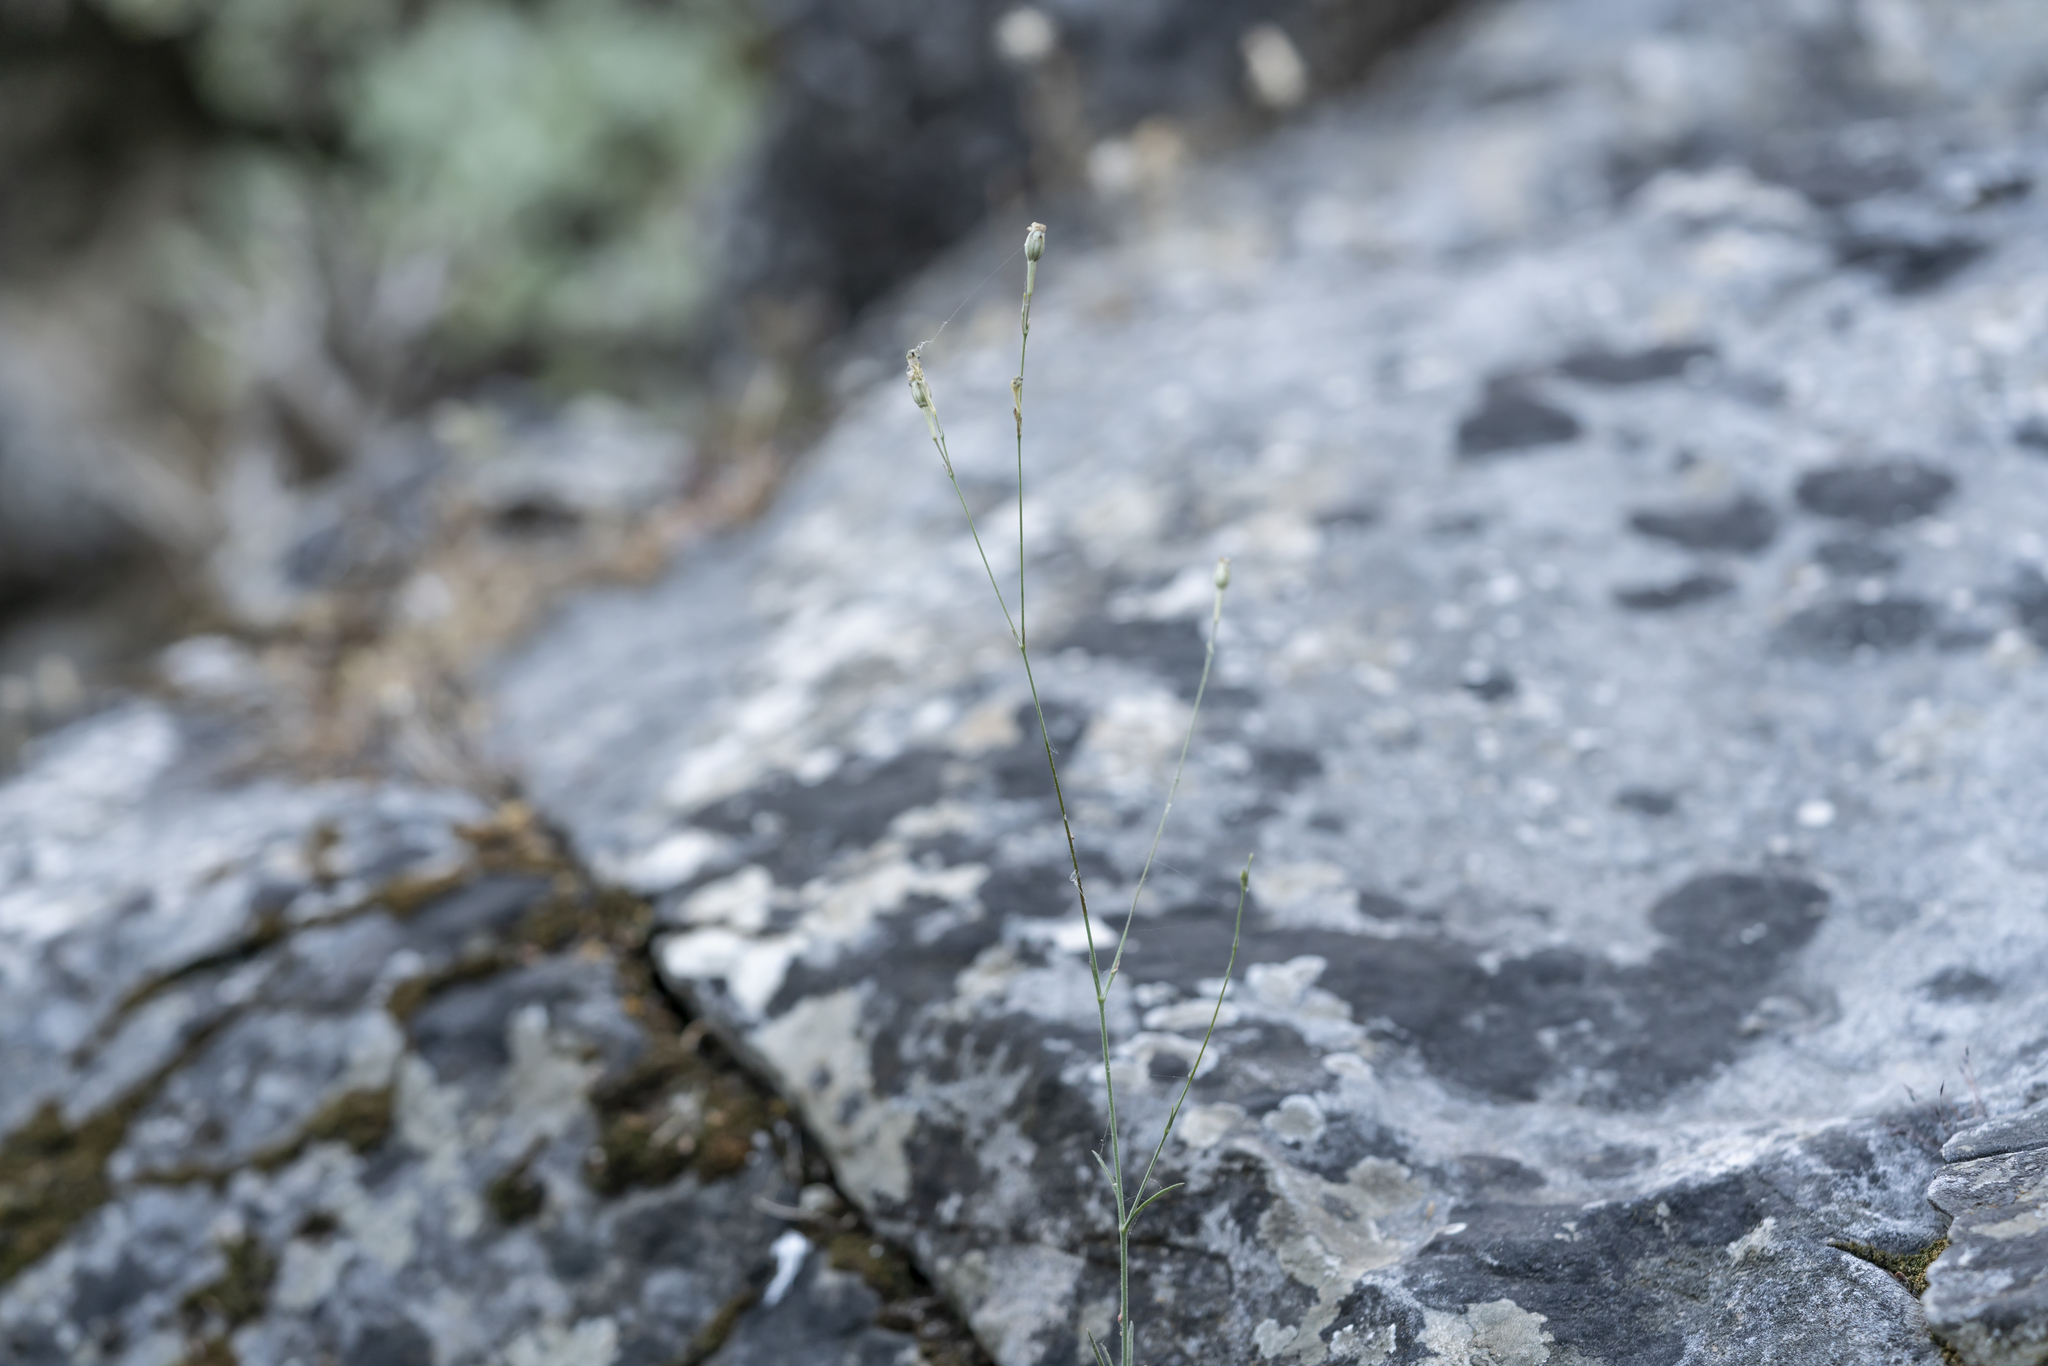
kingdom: Plantae
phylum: Tracheophyta
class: Magnoliopsida
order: Caryophyllales
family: Caryophyllaceae
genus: Silene
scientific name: Silene echinospermoides
